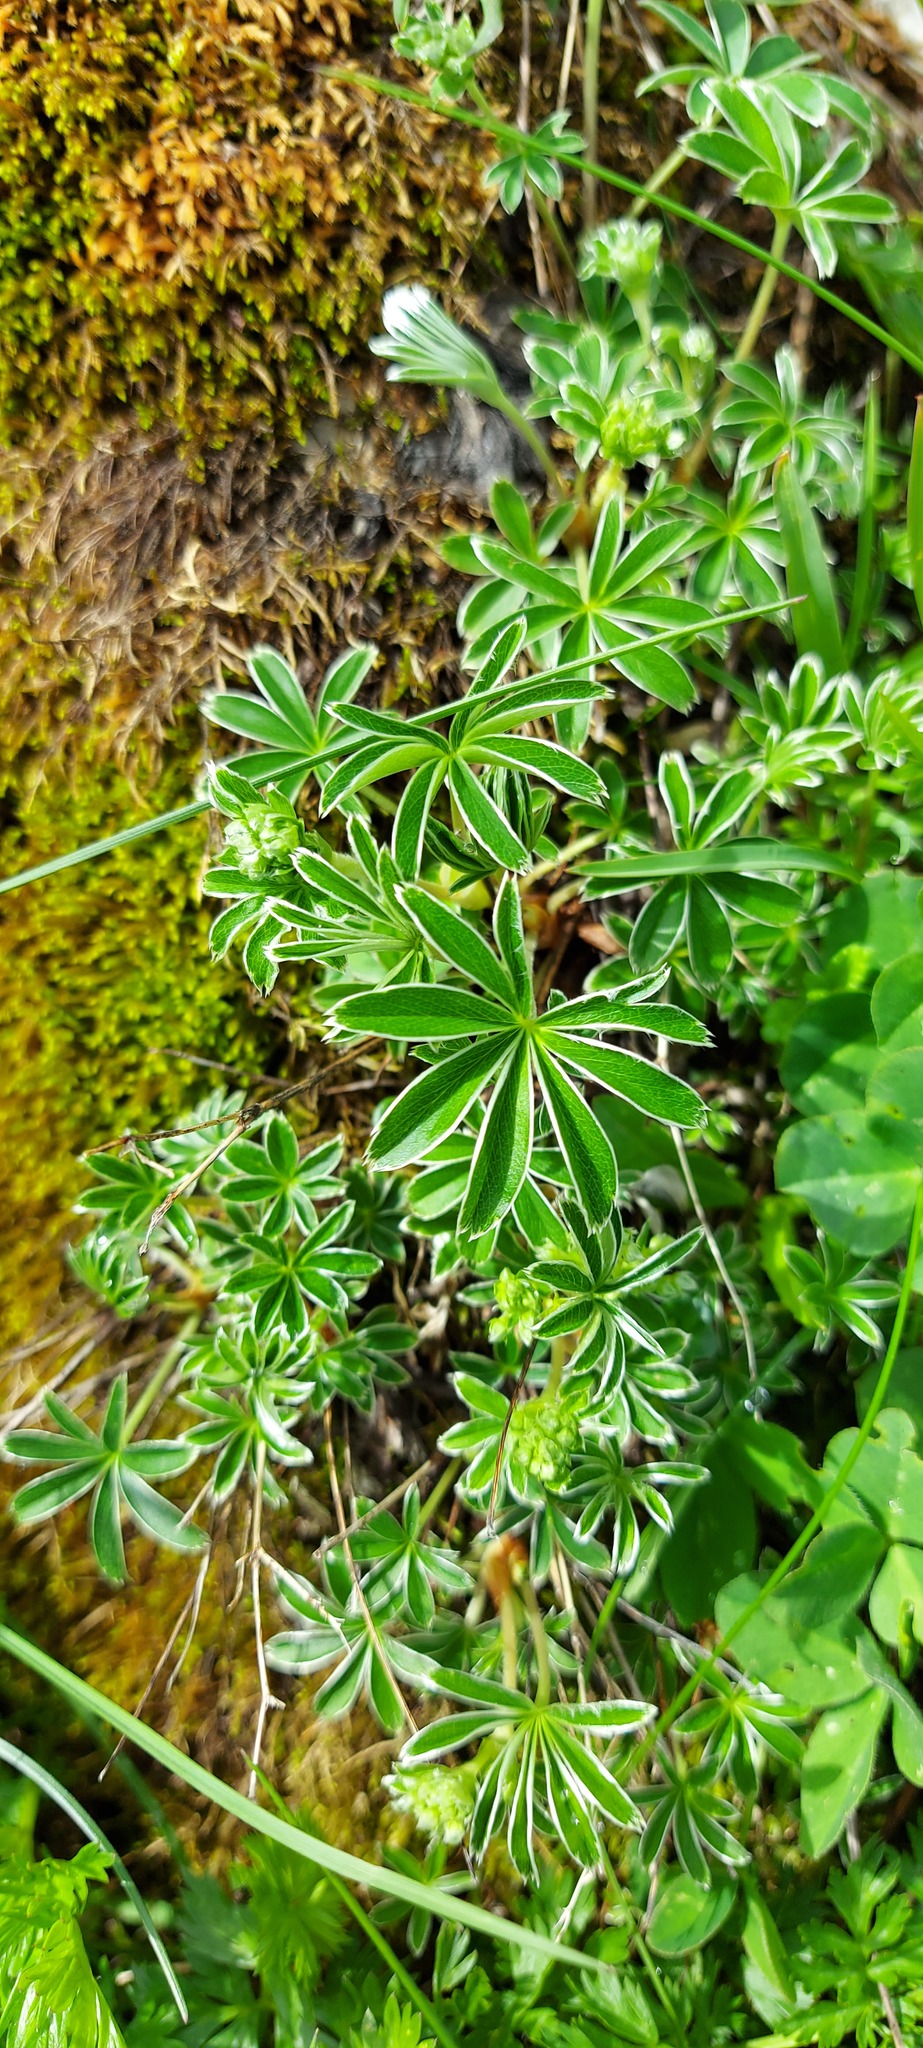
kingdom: Plantae
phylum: Tracheophyta
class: Magnoliopsida
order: Rosales
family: Rosaceae
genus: Alchemilla
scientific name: Alchemilla nitida
